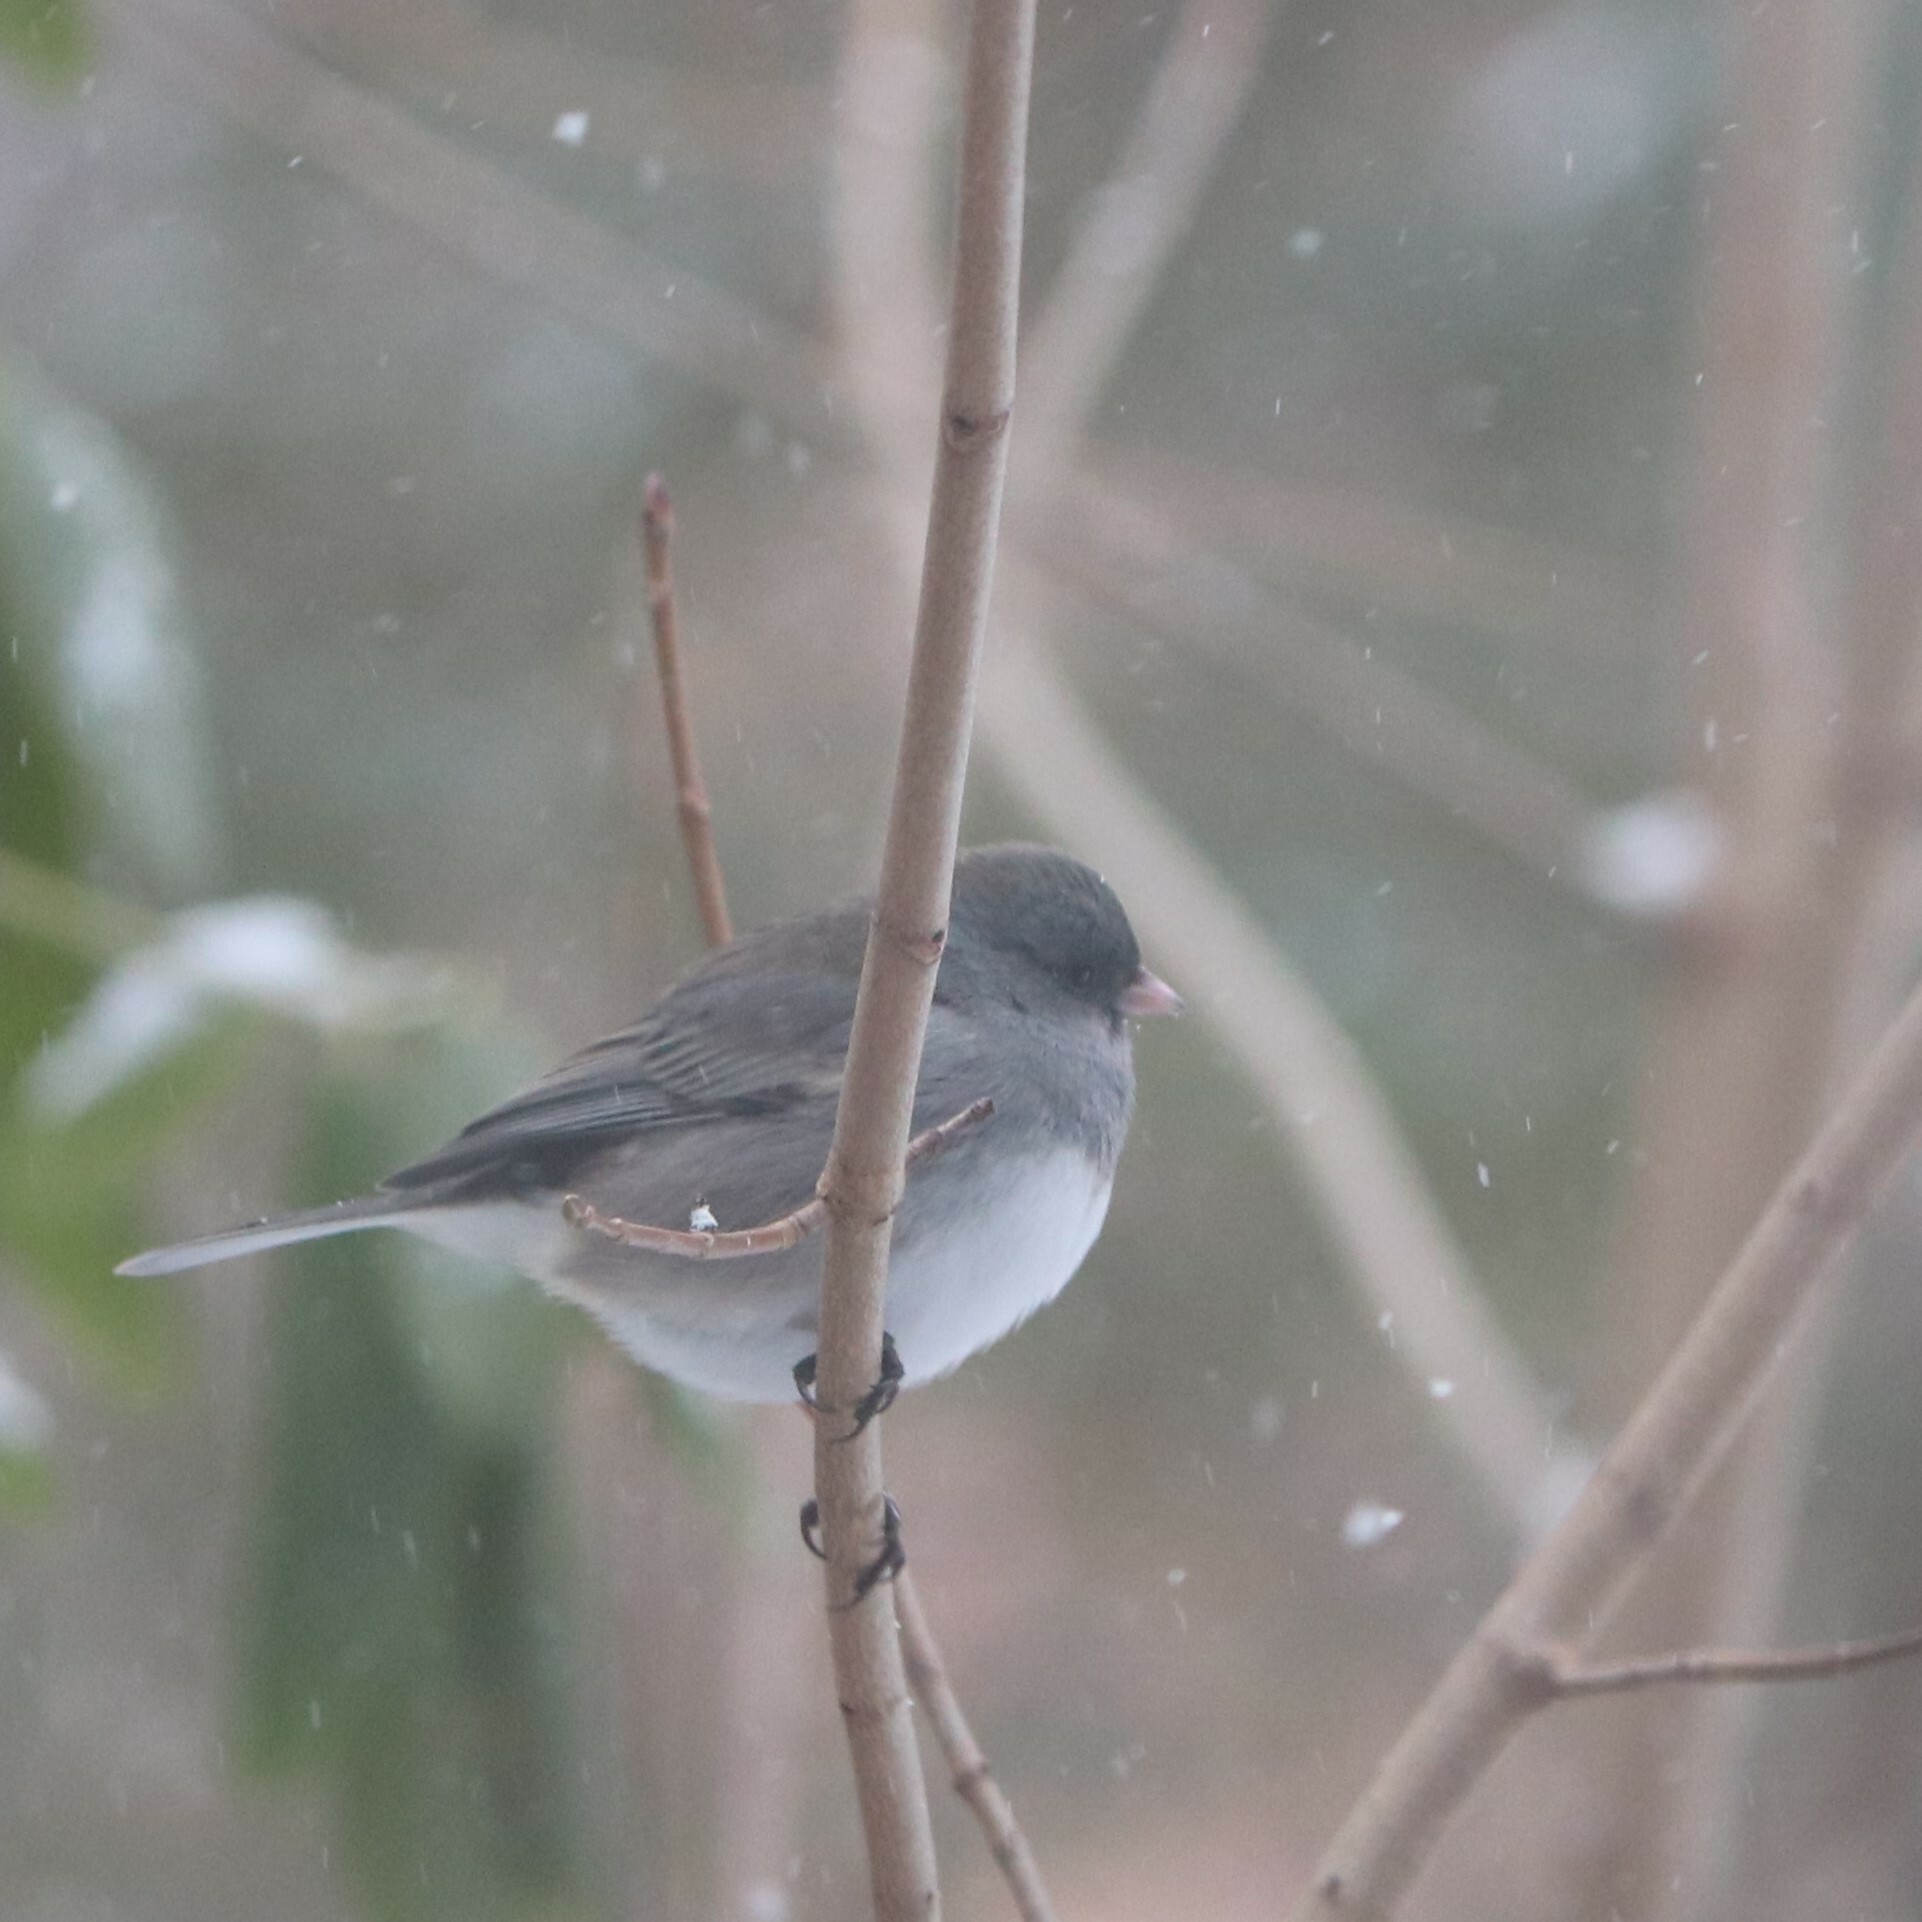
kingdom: Animalia
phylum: Chordata
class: Aves
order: Passeriformes
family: Passerellidae
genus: Junco
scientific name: Junco hyemalis
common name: Dark-eyed junco
